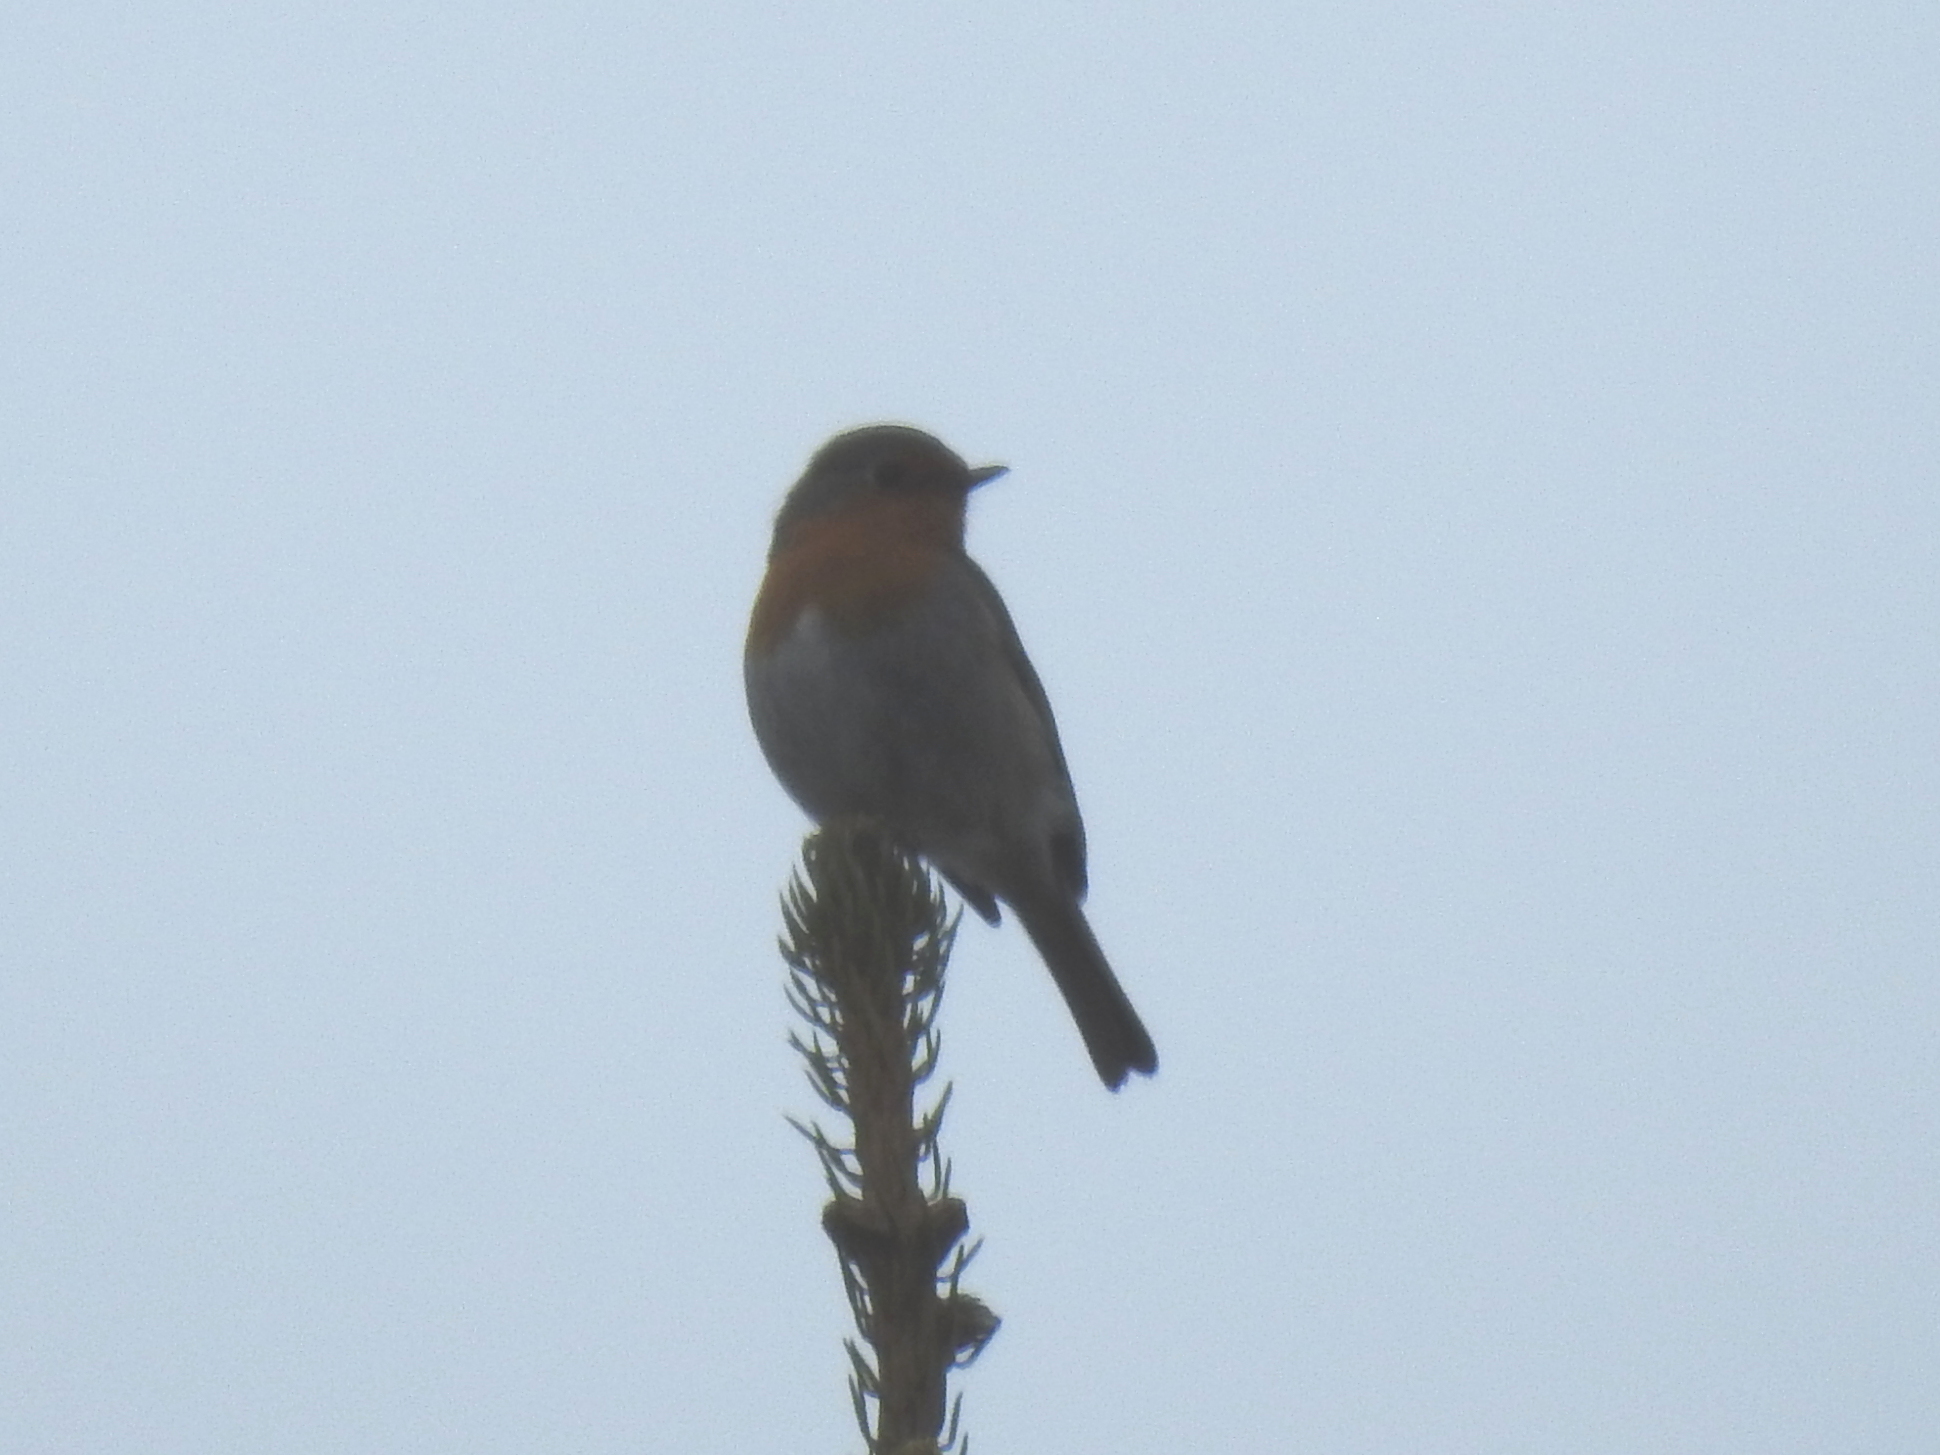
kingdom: Animalia
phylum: Chordata
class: Aves
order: Passeriformes
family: Muscicapidae
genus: Erithacus
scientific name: Erithacus rubecula
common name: European robin
